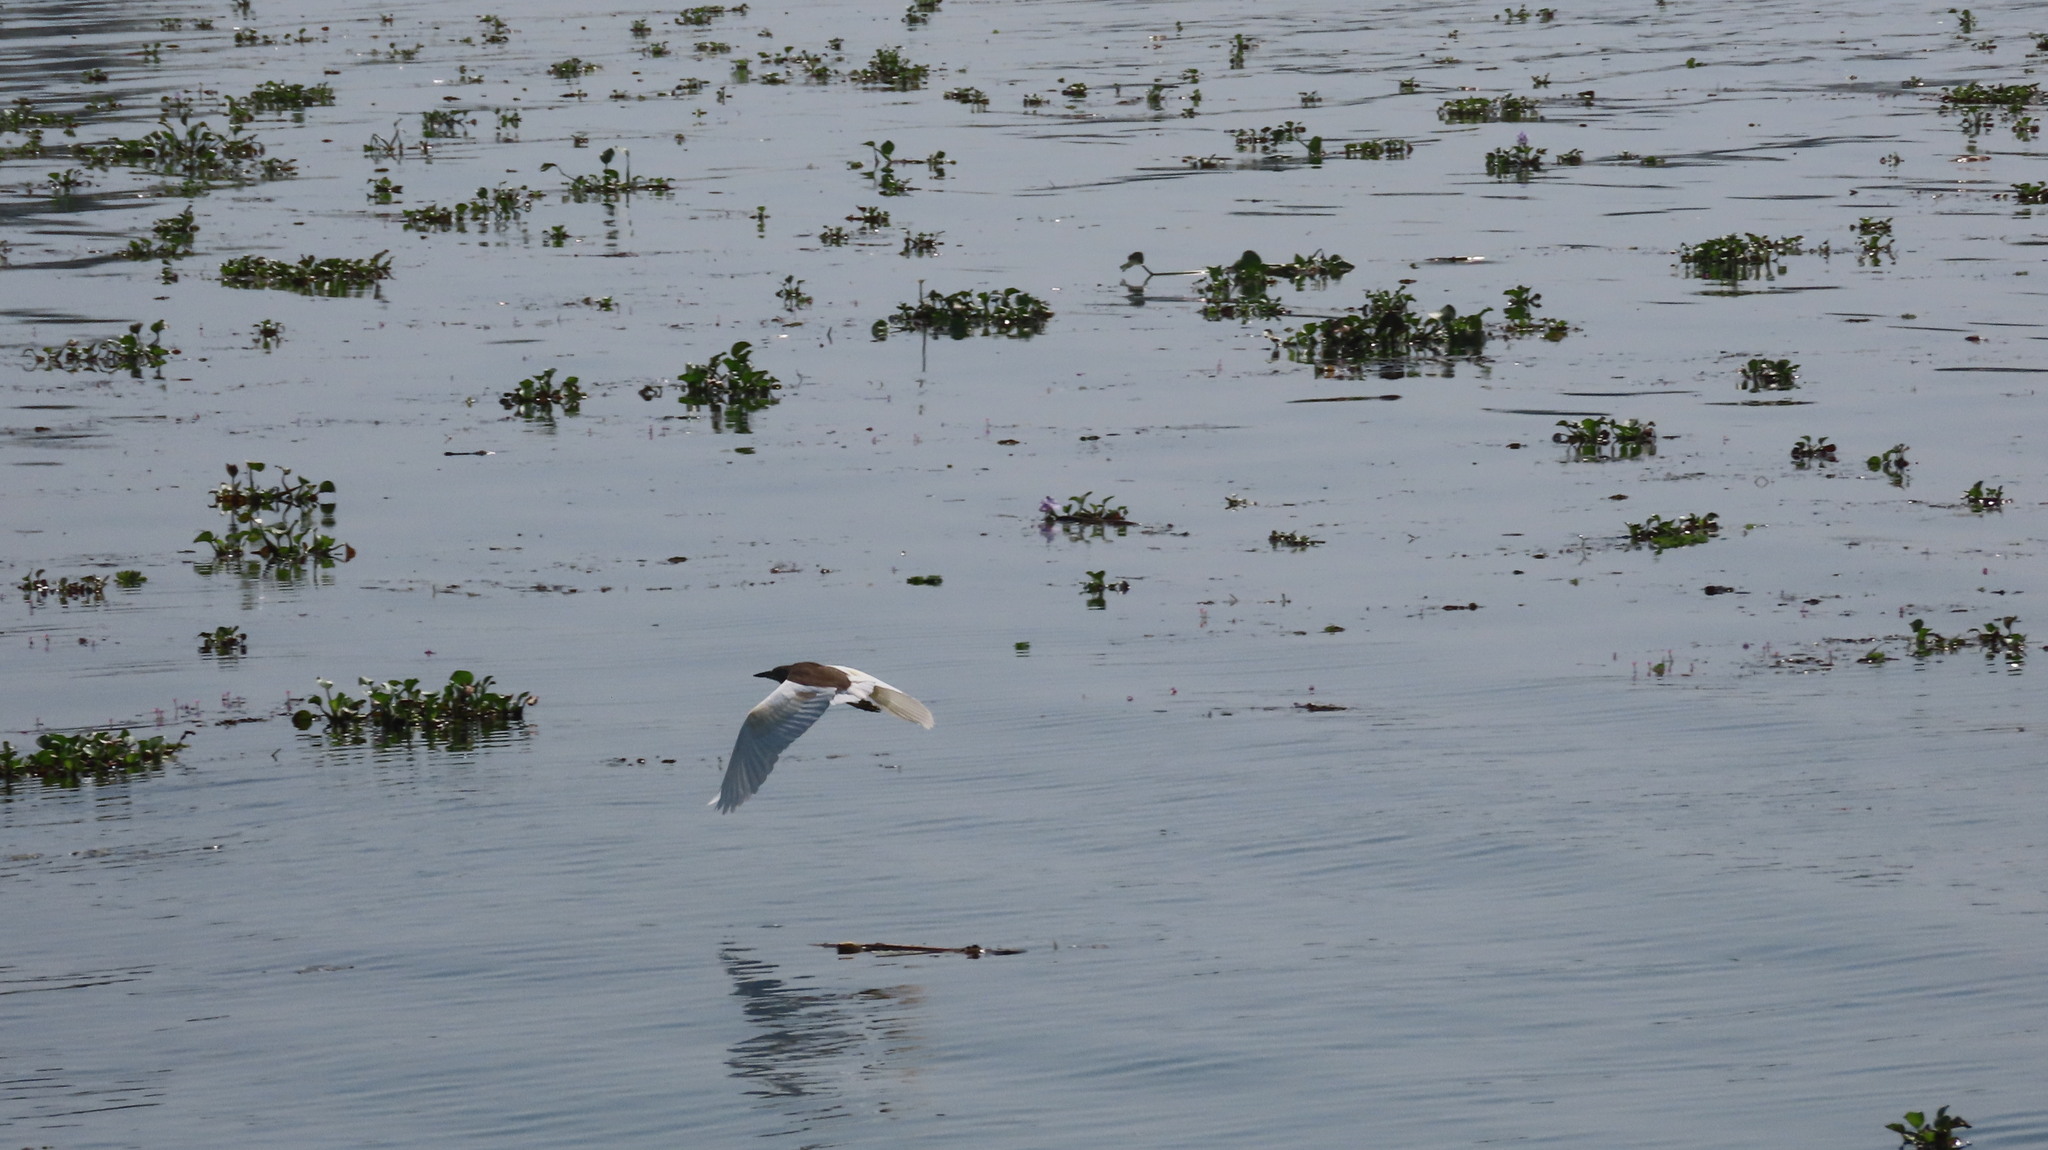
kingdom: Animalia
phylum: Chordata
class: Aves
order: Pelecaniformes
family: Ardeidae
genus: Ardeola
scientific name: Ardeola grayii
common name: Indian pond heron
